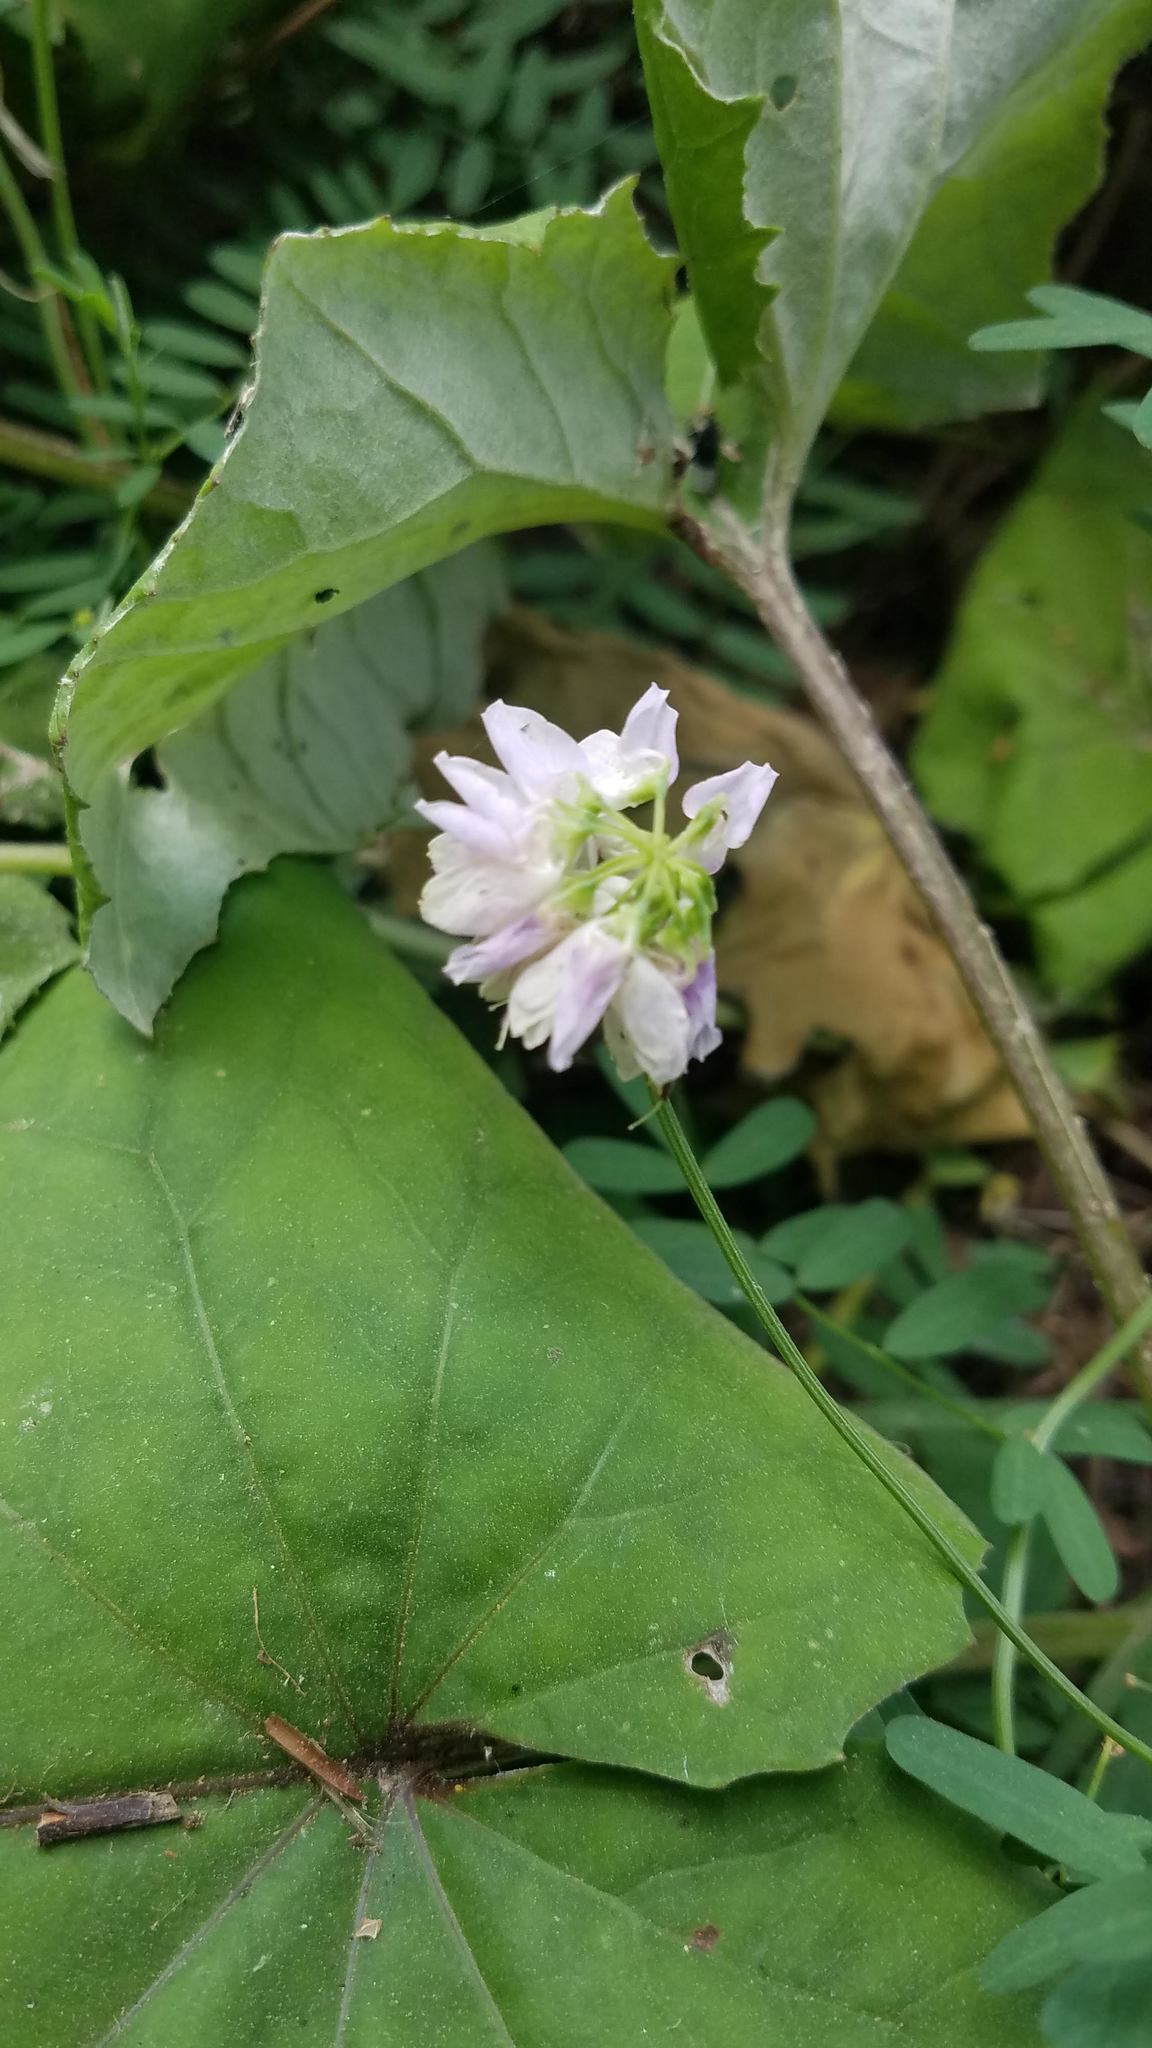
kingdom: Plantae
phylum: Tracheophyta
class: Magnoliopsida
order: Fabales
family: Fabaceae
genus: Coronilla
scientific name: Coronilla varia
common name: Crownvetch
